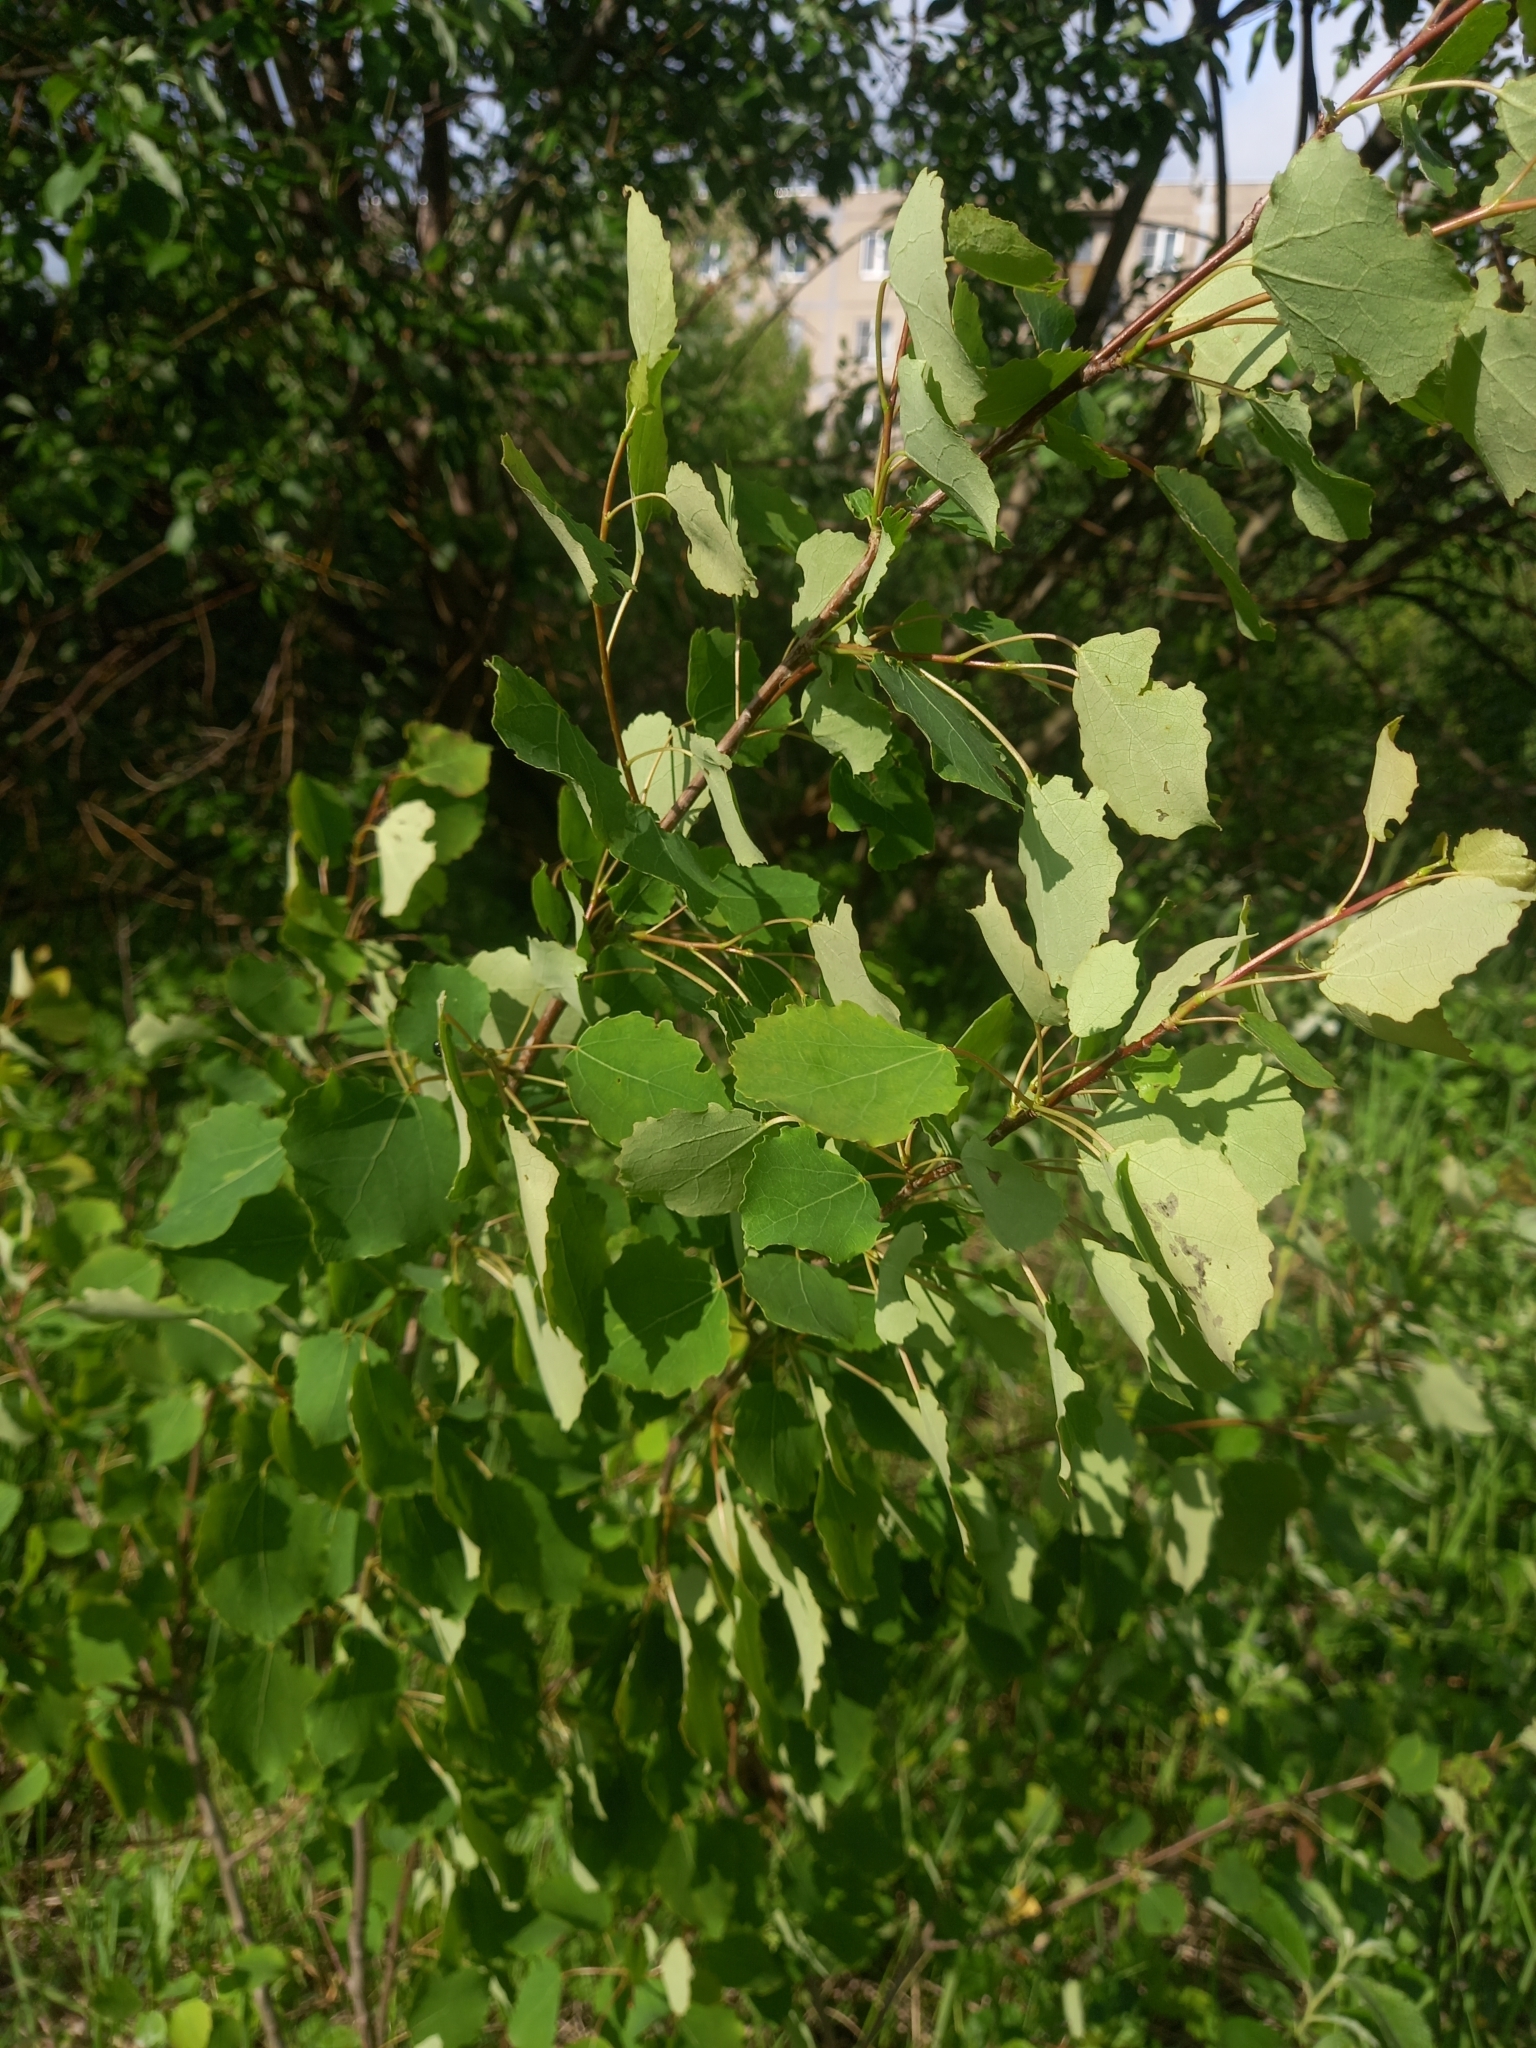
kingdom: Plantae
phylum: Tracheophyta
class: Magnoliopsida
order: Malpighiales
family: Salicaceae
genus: Populus
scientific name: Populus tremula
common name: European aspen
